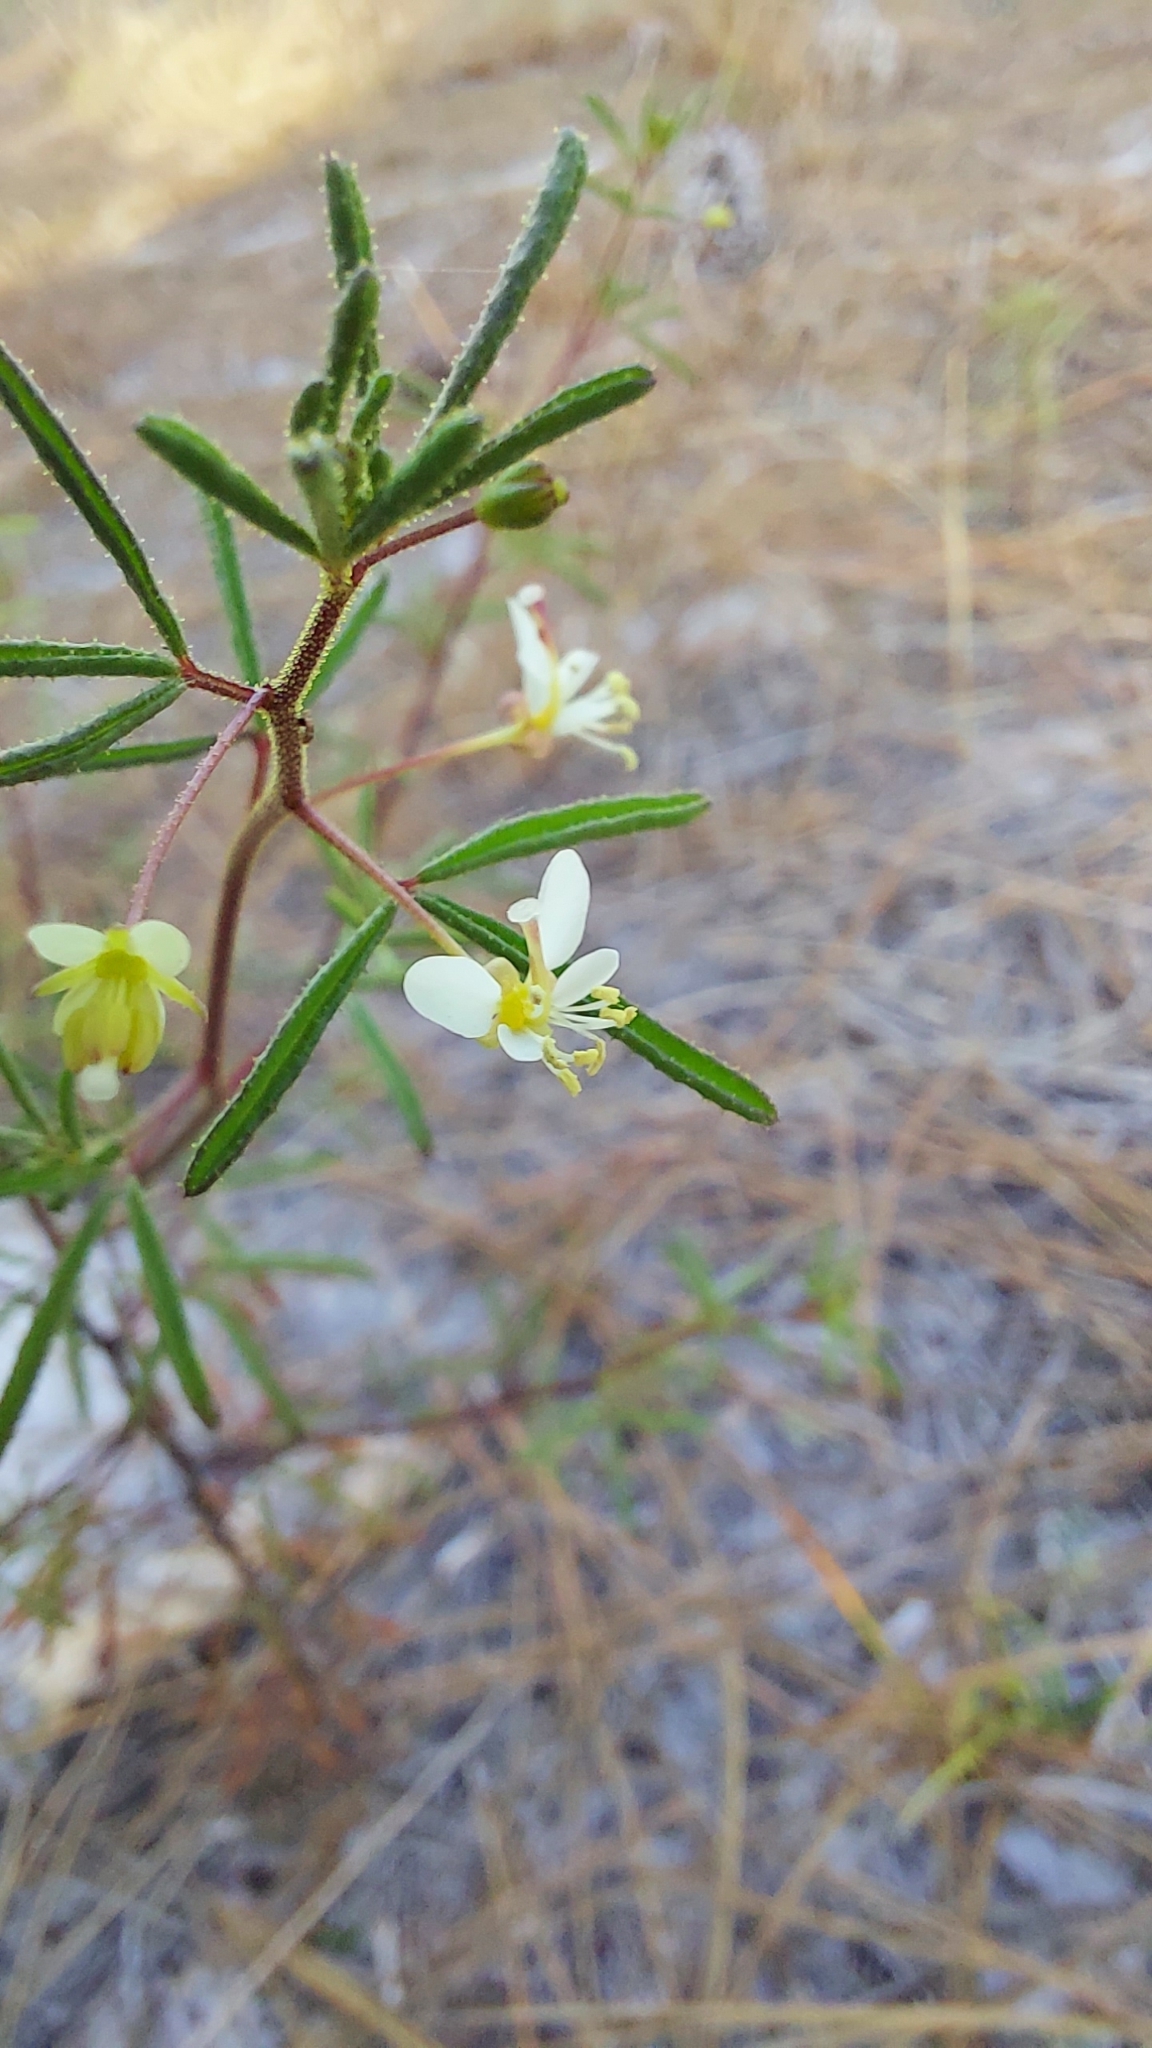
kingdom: Plantae
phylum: Tracheophyta
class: Magnoliopsida
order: Brassicales
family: Cleomaceae
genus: Polanisia
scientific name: Polanisia tenuifolia
